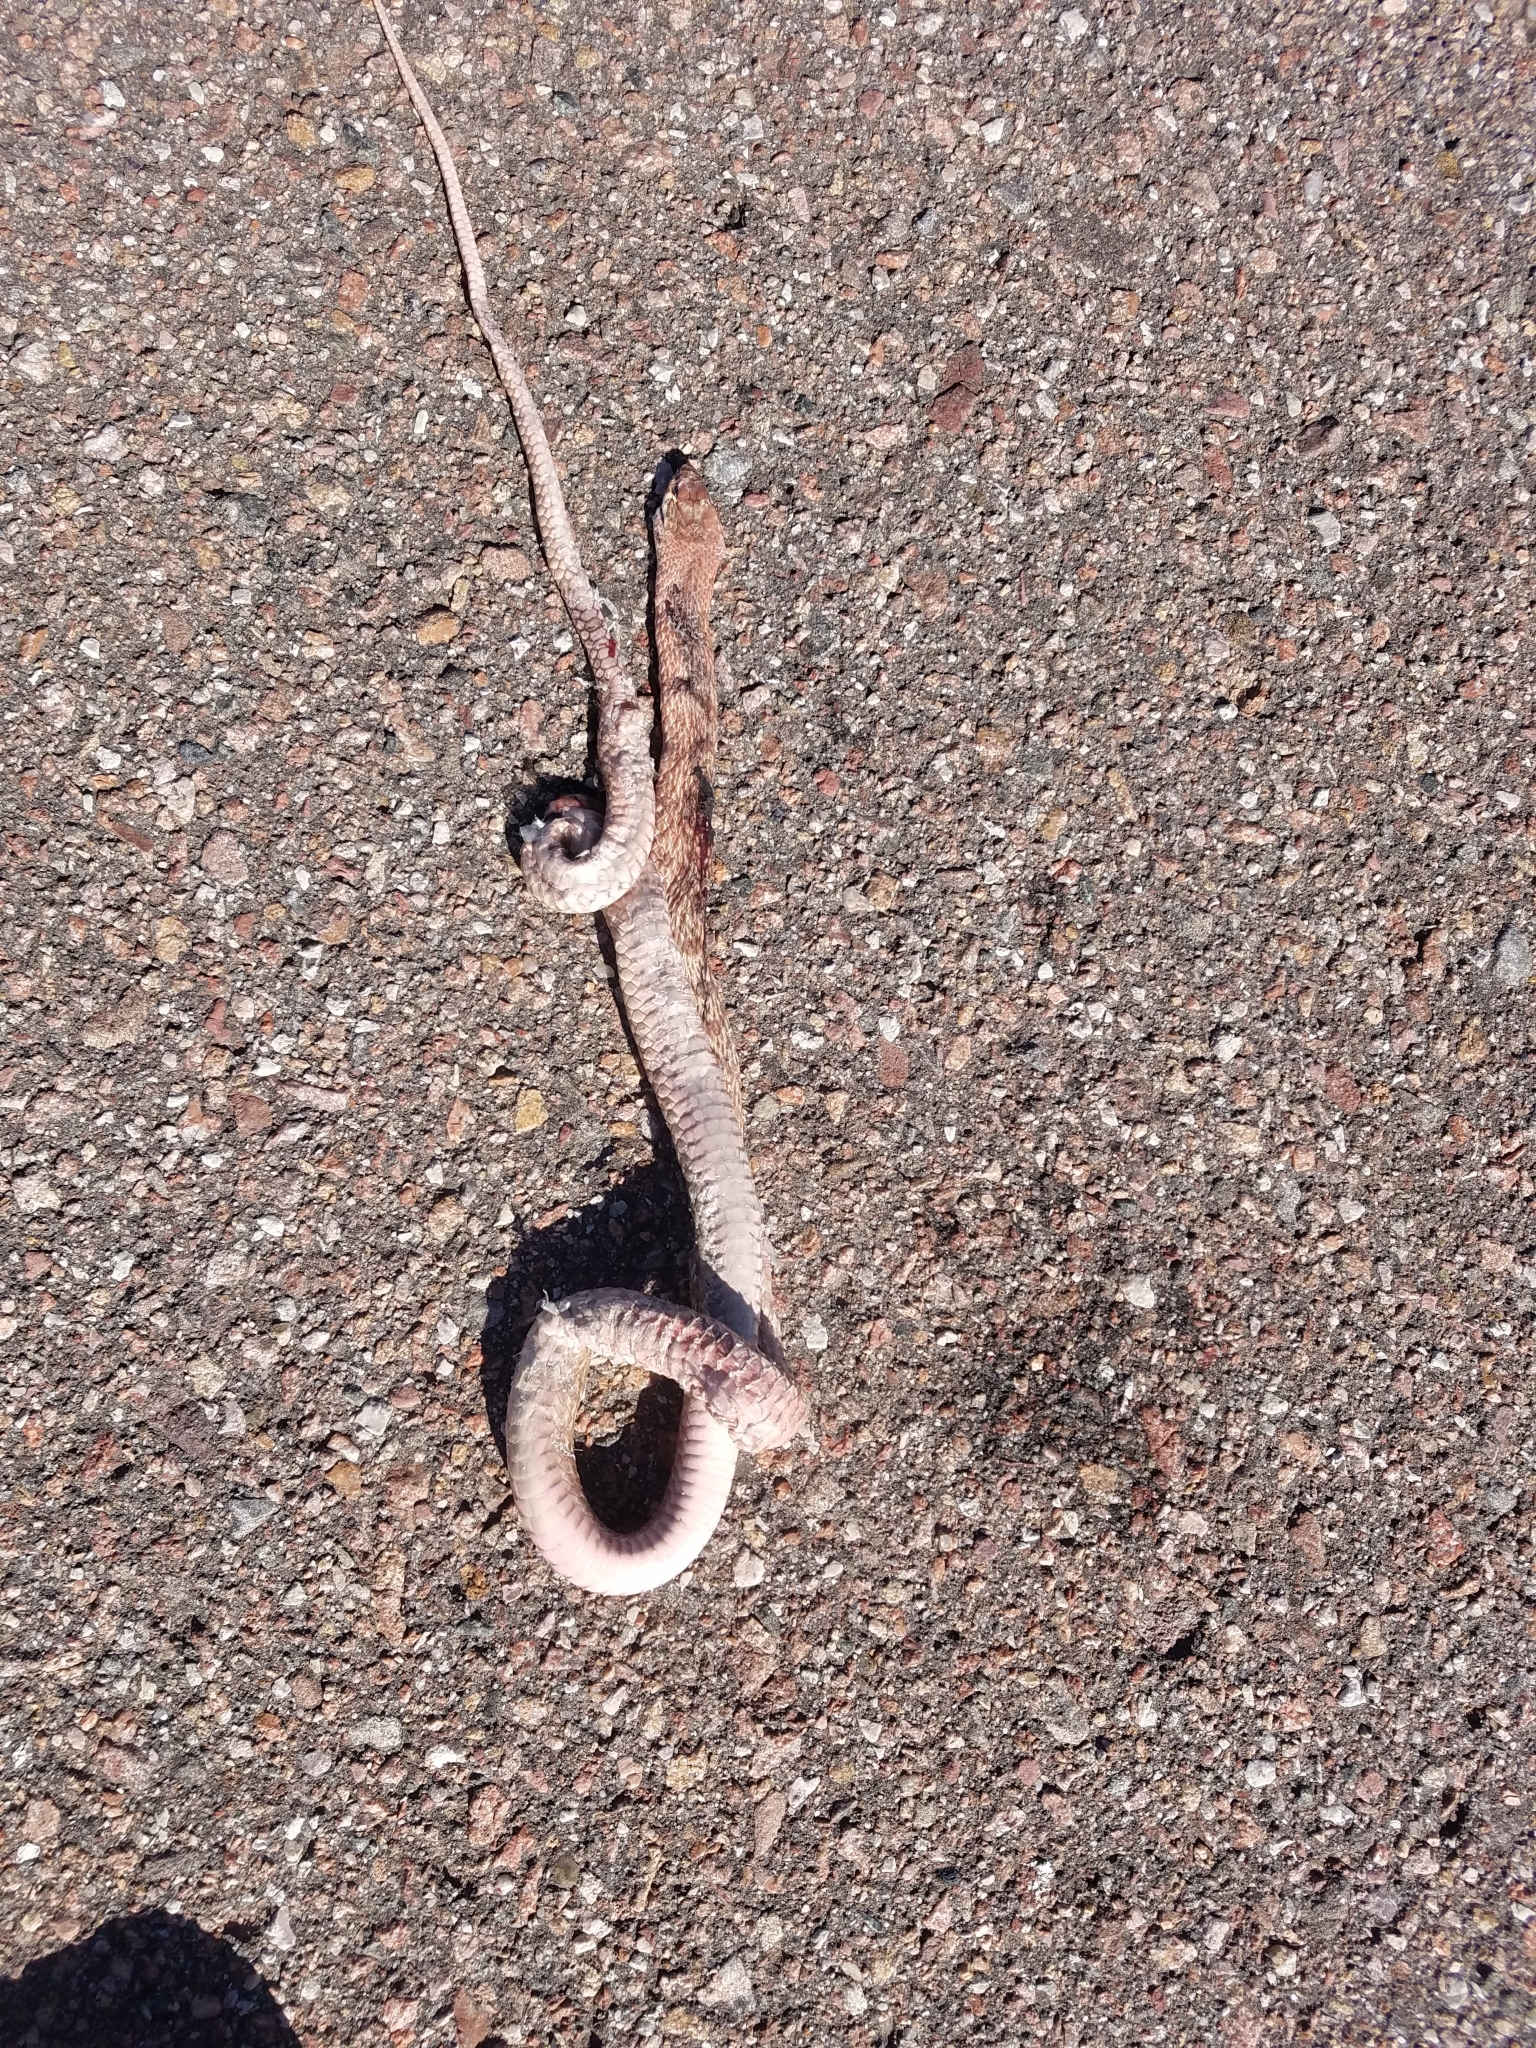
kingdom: Animalia
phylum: Chordata
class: Squamata
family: Colubridae
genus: Masticophis
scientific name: Masticophis flagellum
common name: Coachwhip
